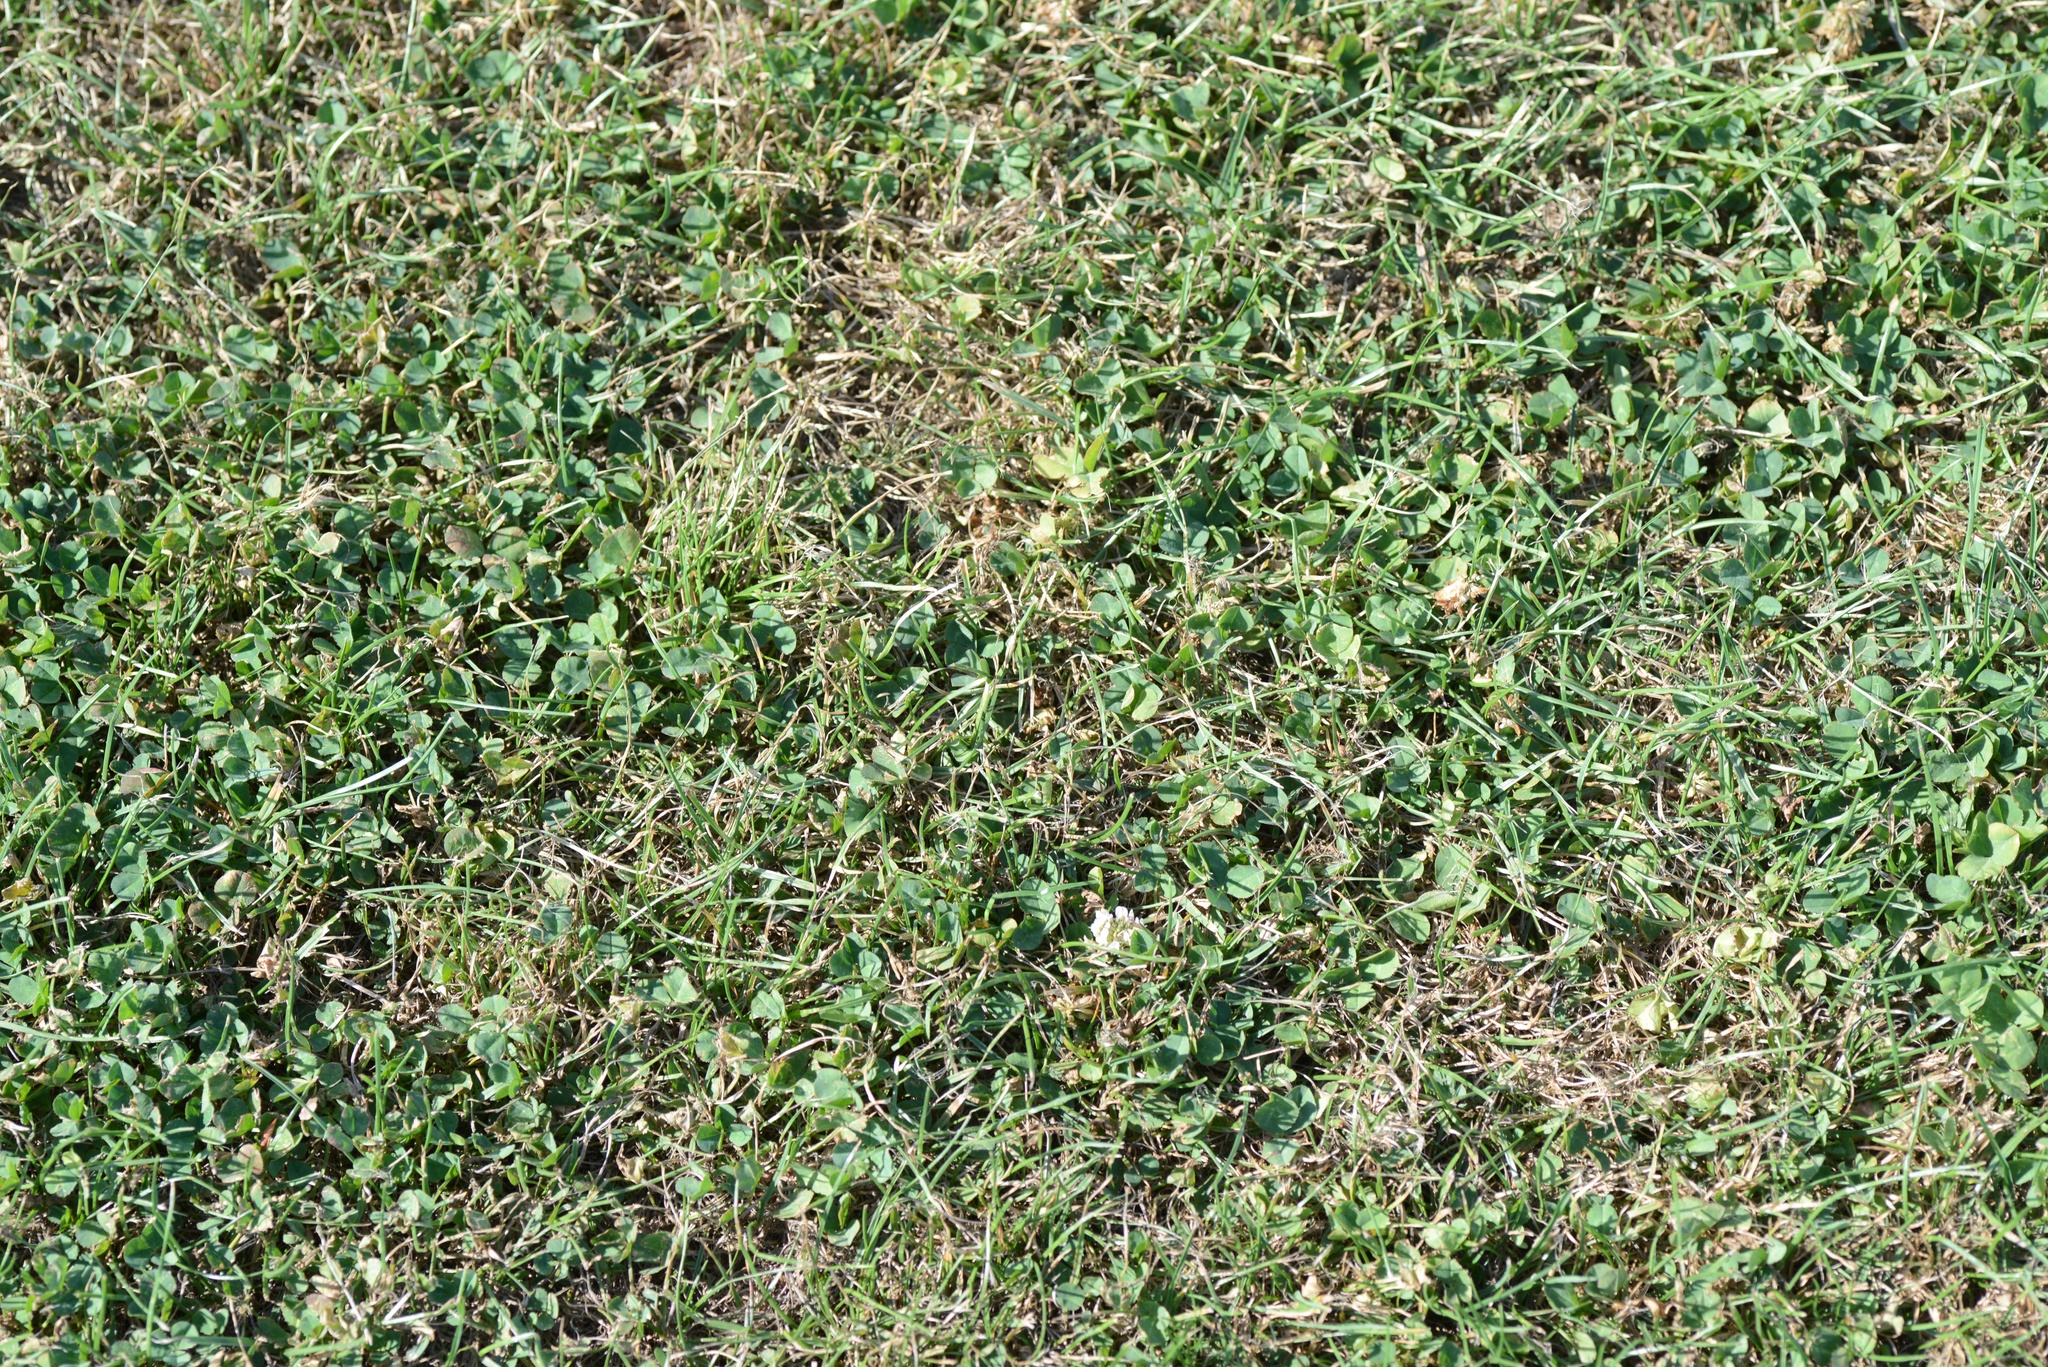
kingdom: Plantae
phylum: Tracheophyta
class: Magnoliopsida
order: Fabales
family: Fabaceae
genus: Trifolium
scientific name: Trifolium repens
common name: White clover
